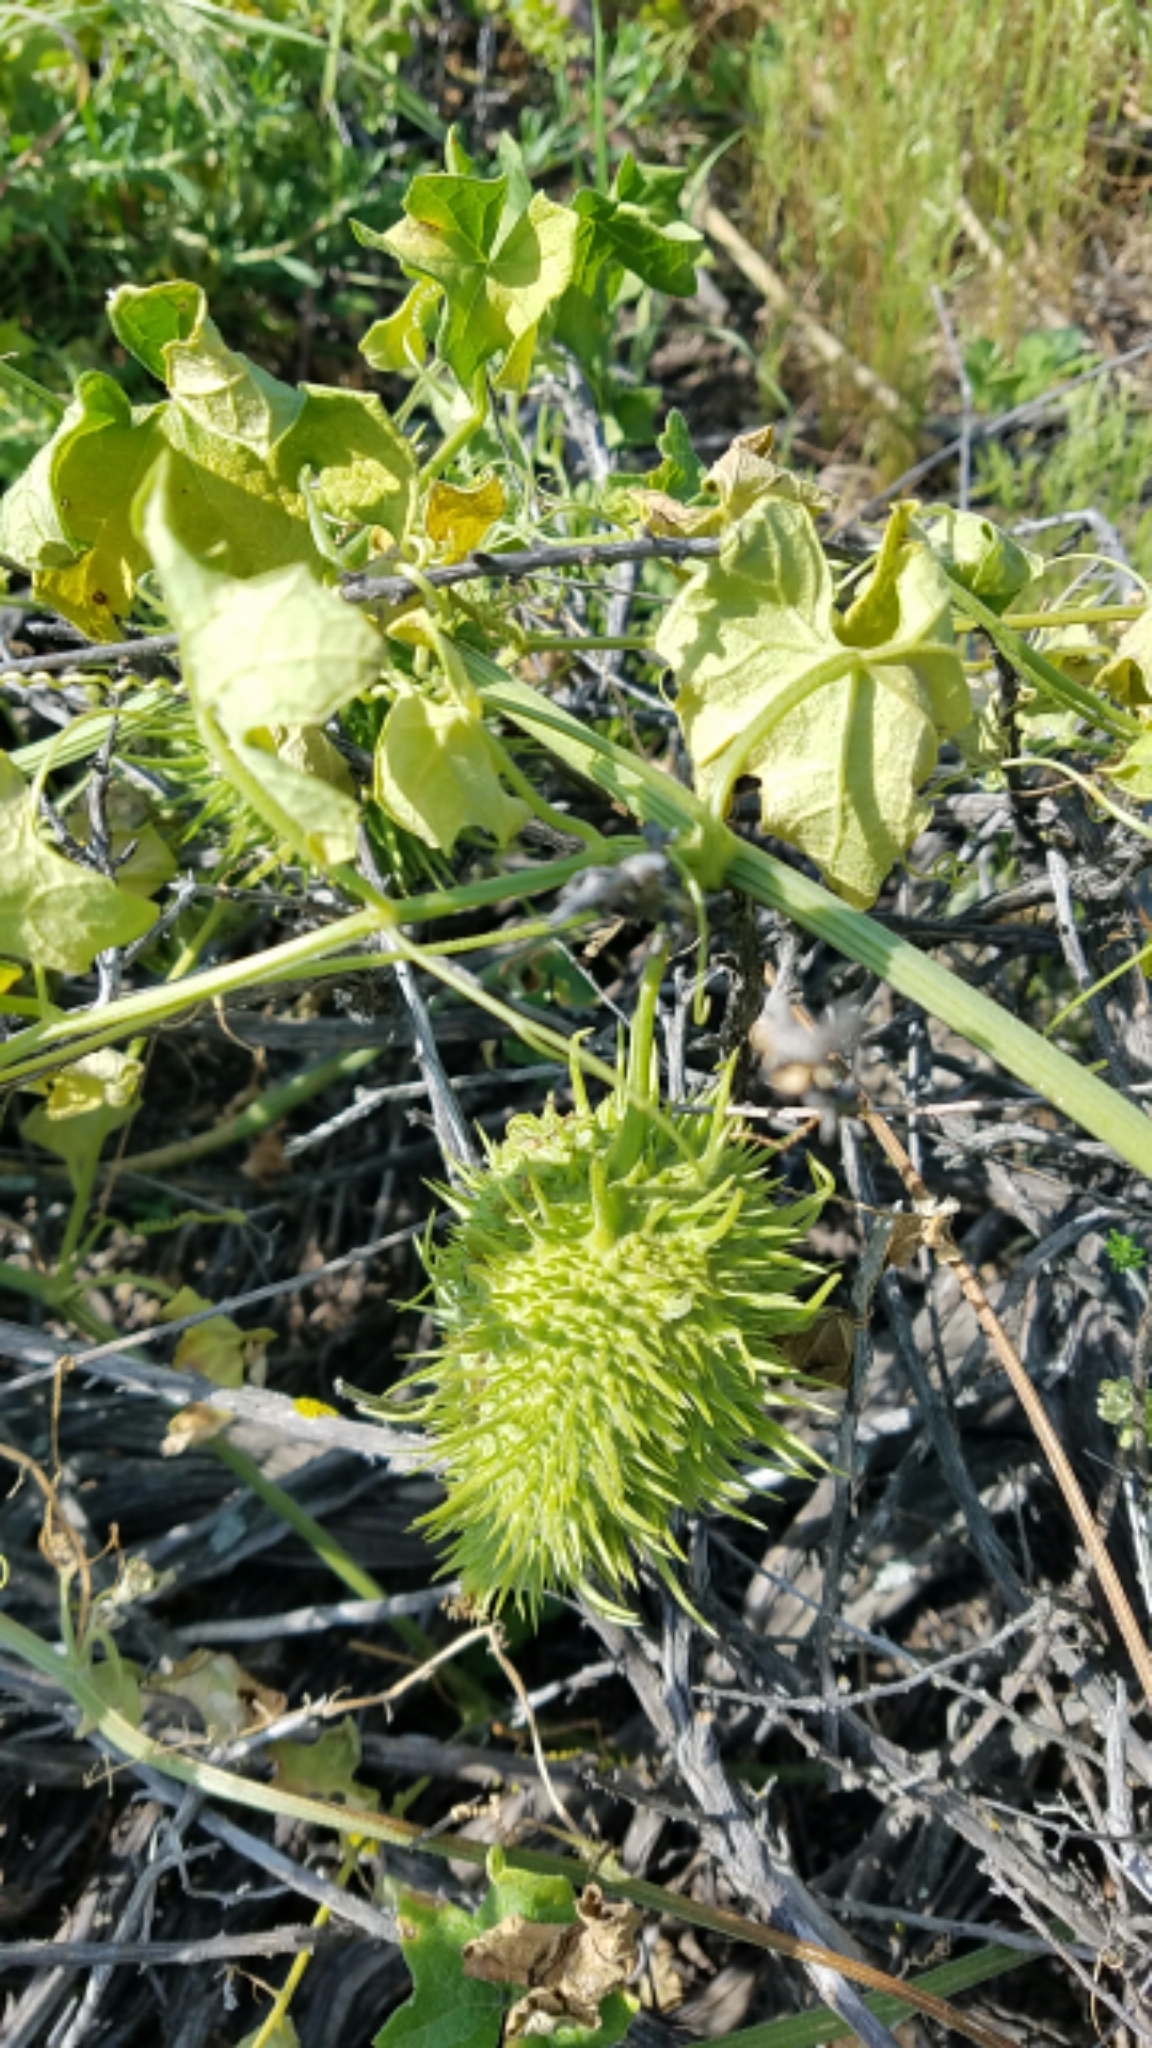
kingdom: Plantae
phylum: Tracheophyta
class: Magnoliopsida
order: Cucurbitales
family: Cucurbitaceae
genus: Marah
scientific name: Marah macrocarpa
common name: Cucamonga manroot
